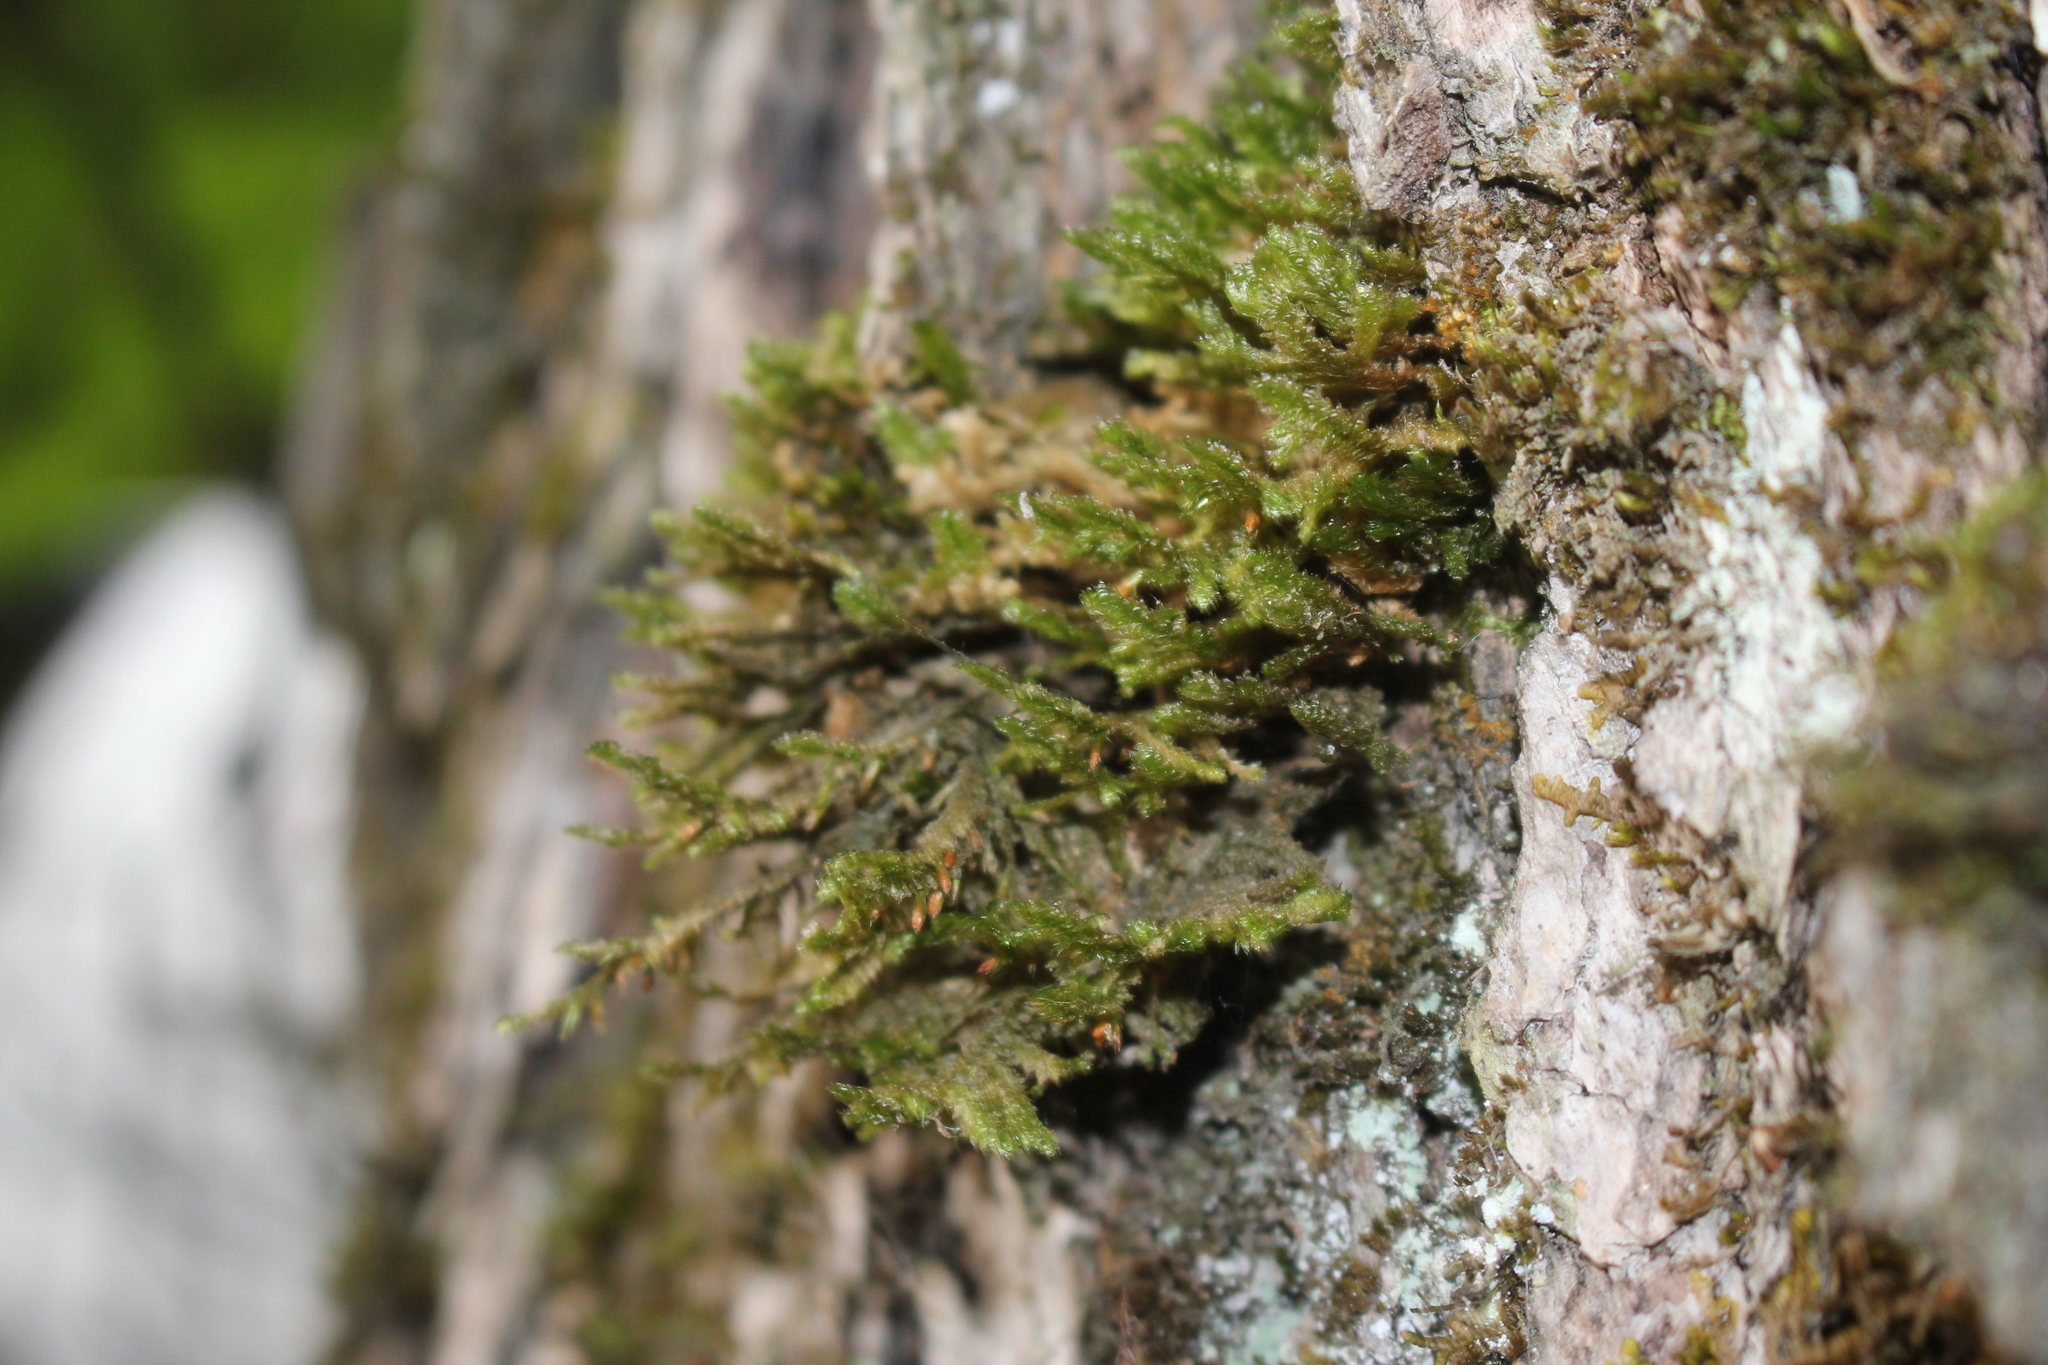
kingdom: Plantae
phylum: Bryophyta
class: Bryopsida
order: Hypnales
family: Neckeraceae
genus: Neckera
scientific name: Neckera pennata
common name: Feathery neckera
